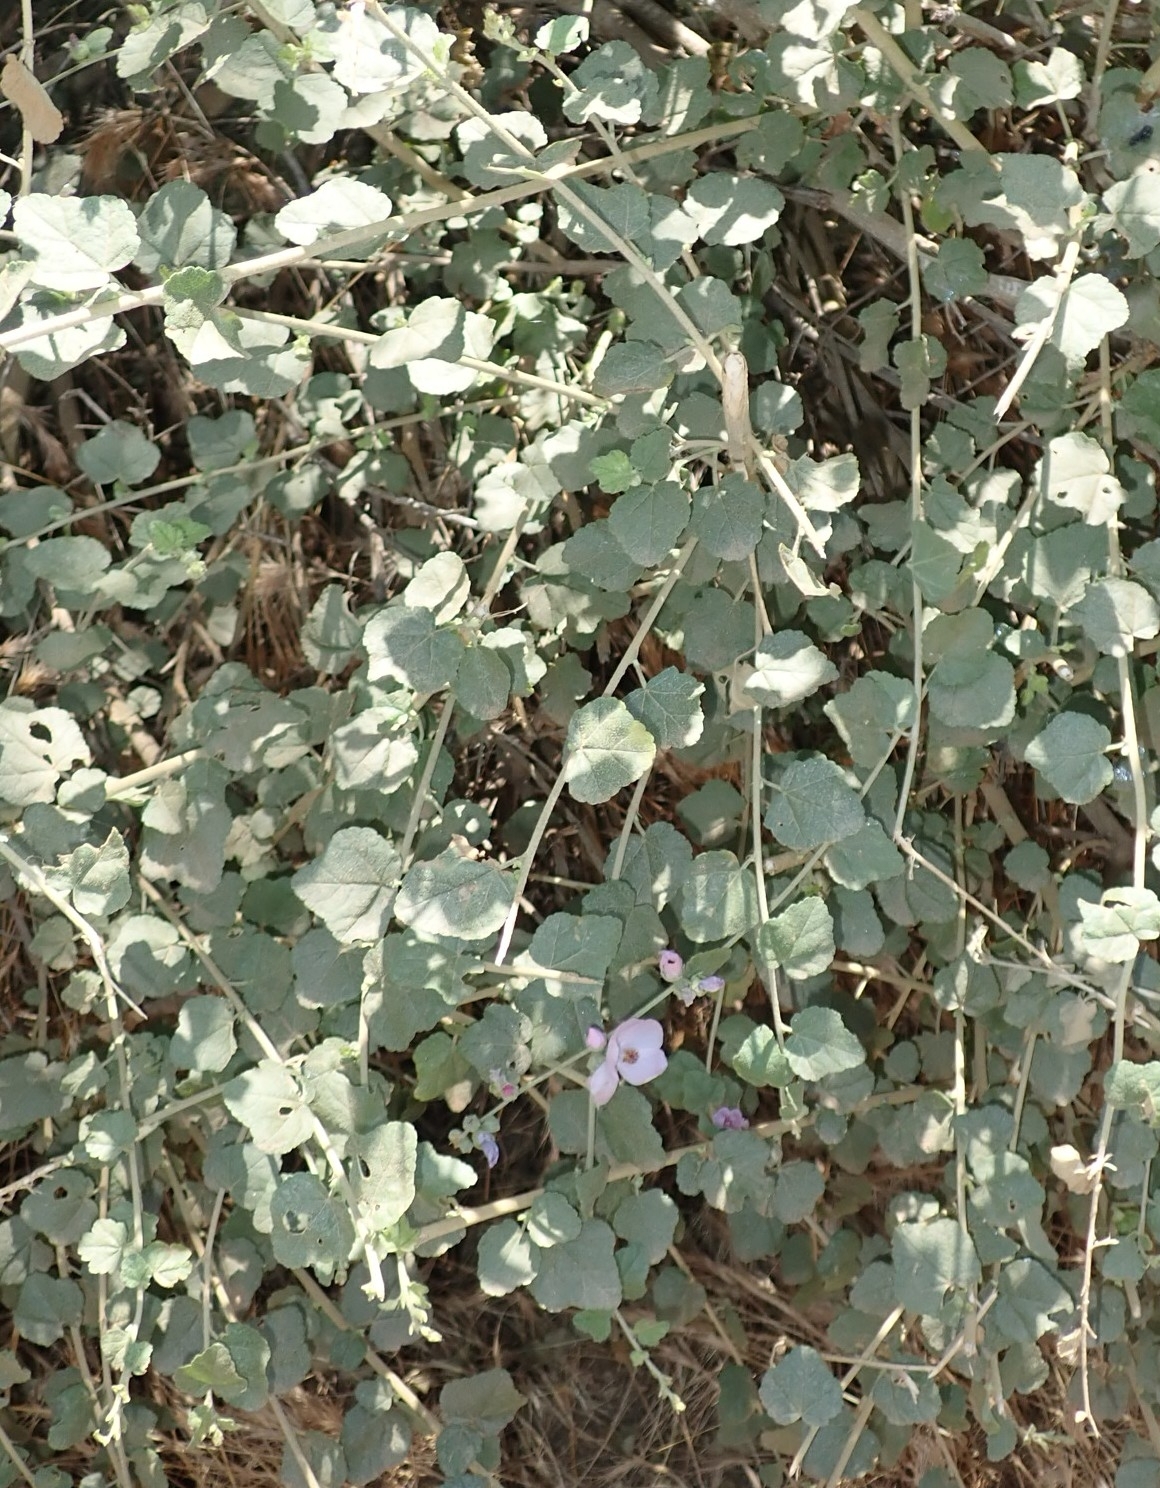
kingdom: Plantae
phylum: Tracheophyta
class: Magnoliopsida
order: Malvales
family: Malvaceae
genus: Malacothamnus
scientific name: Malacothamnus fasciculatus
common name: Sant cruz island bush-mallow
